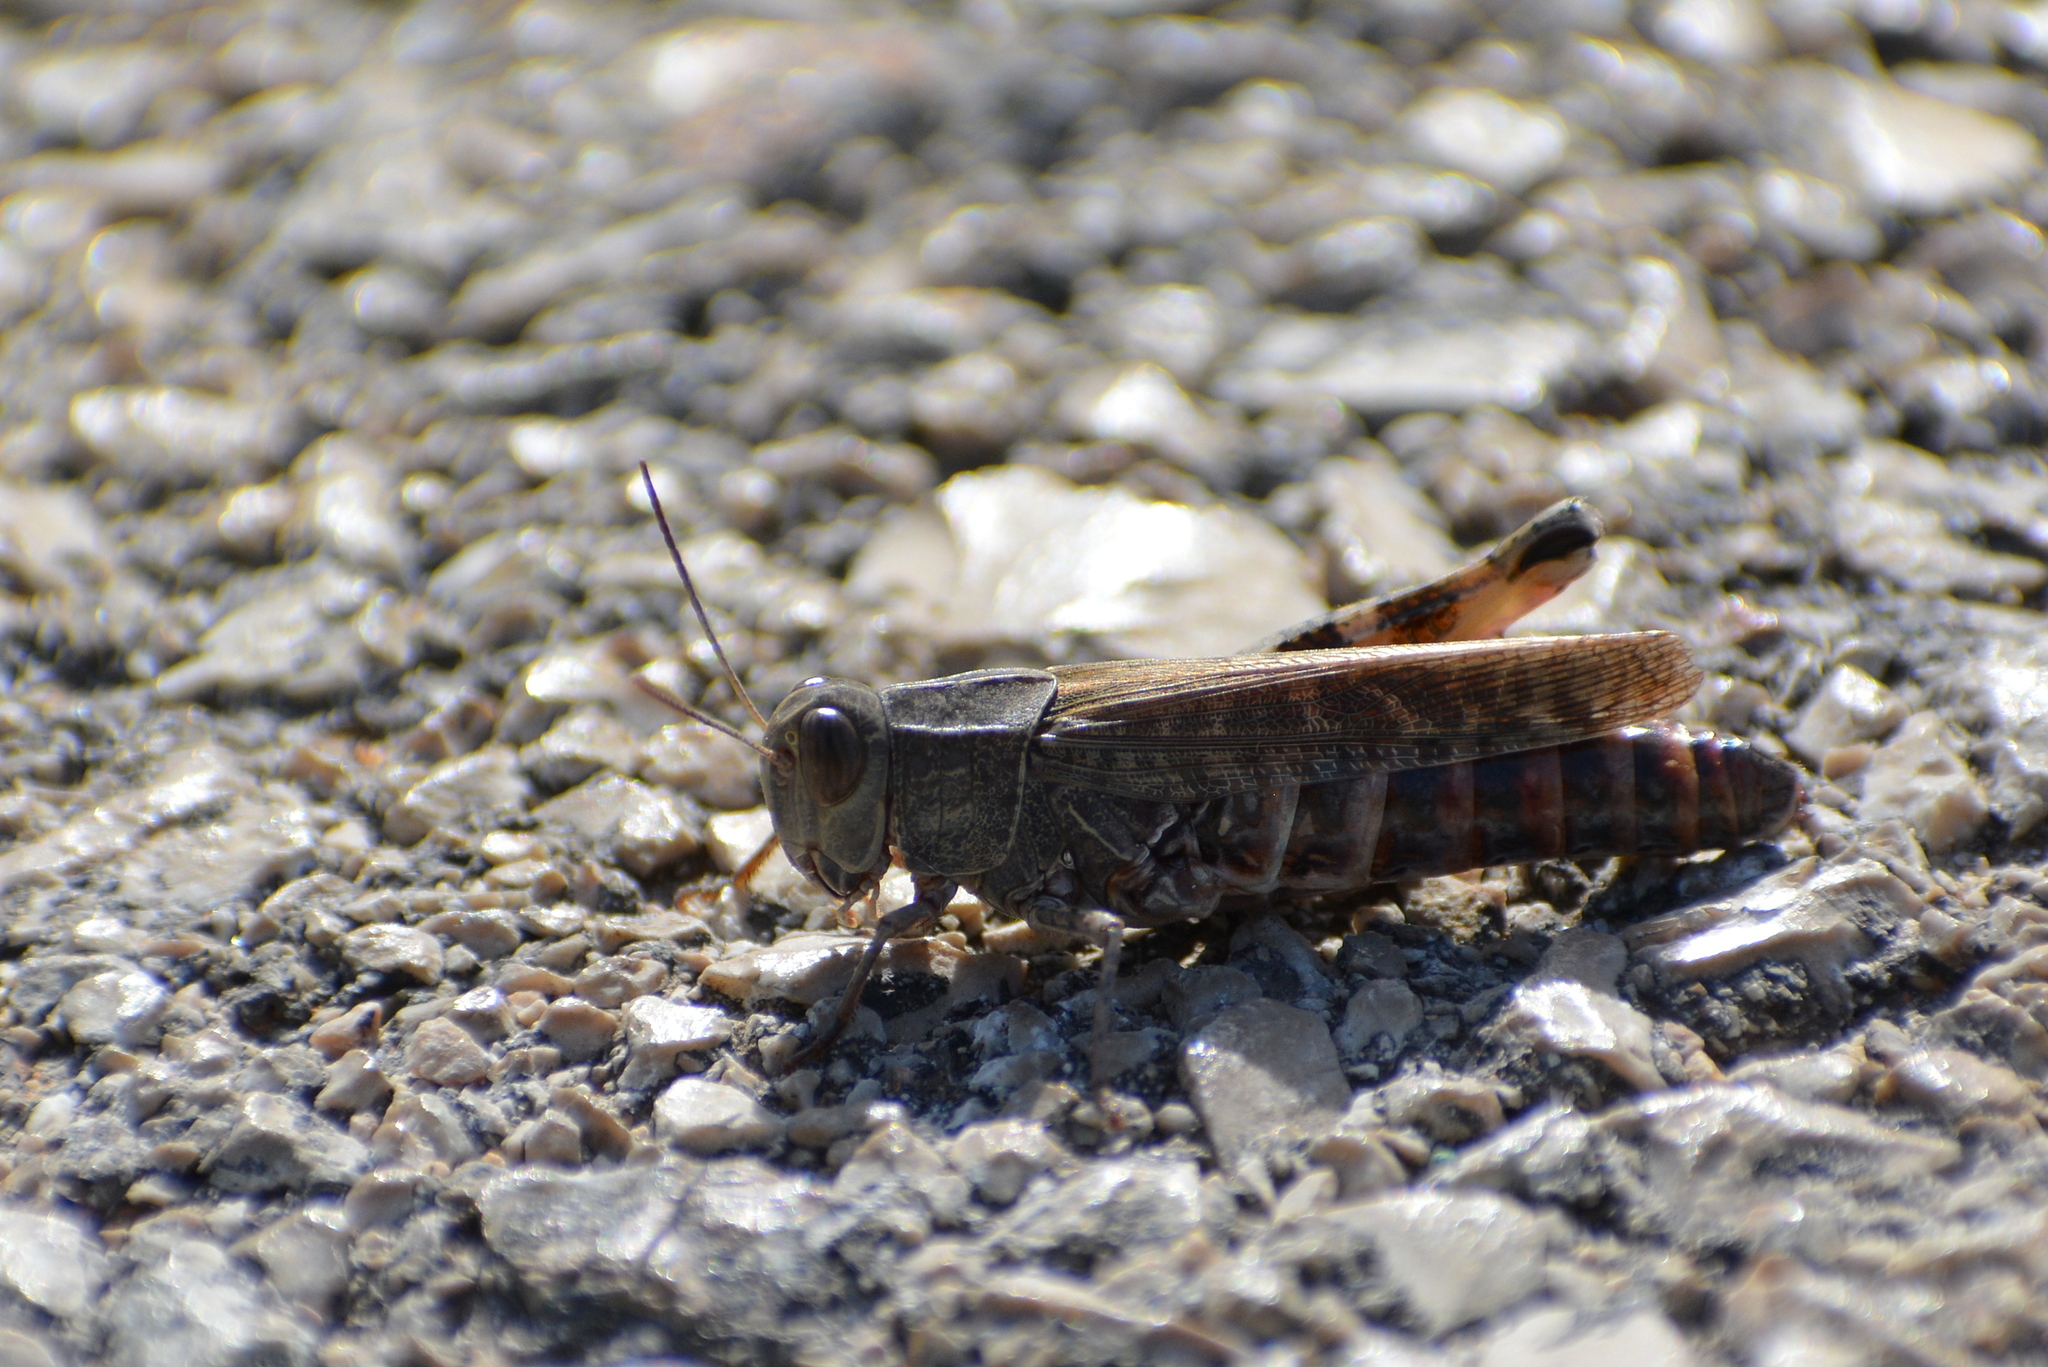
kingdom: Animalia
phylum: Arthropoda
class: Insecta
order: Orthoptera
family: Acrididae
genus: Calliptamus
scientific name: Calliptamus italicus
